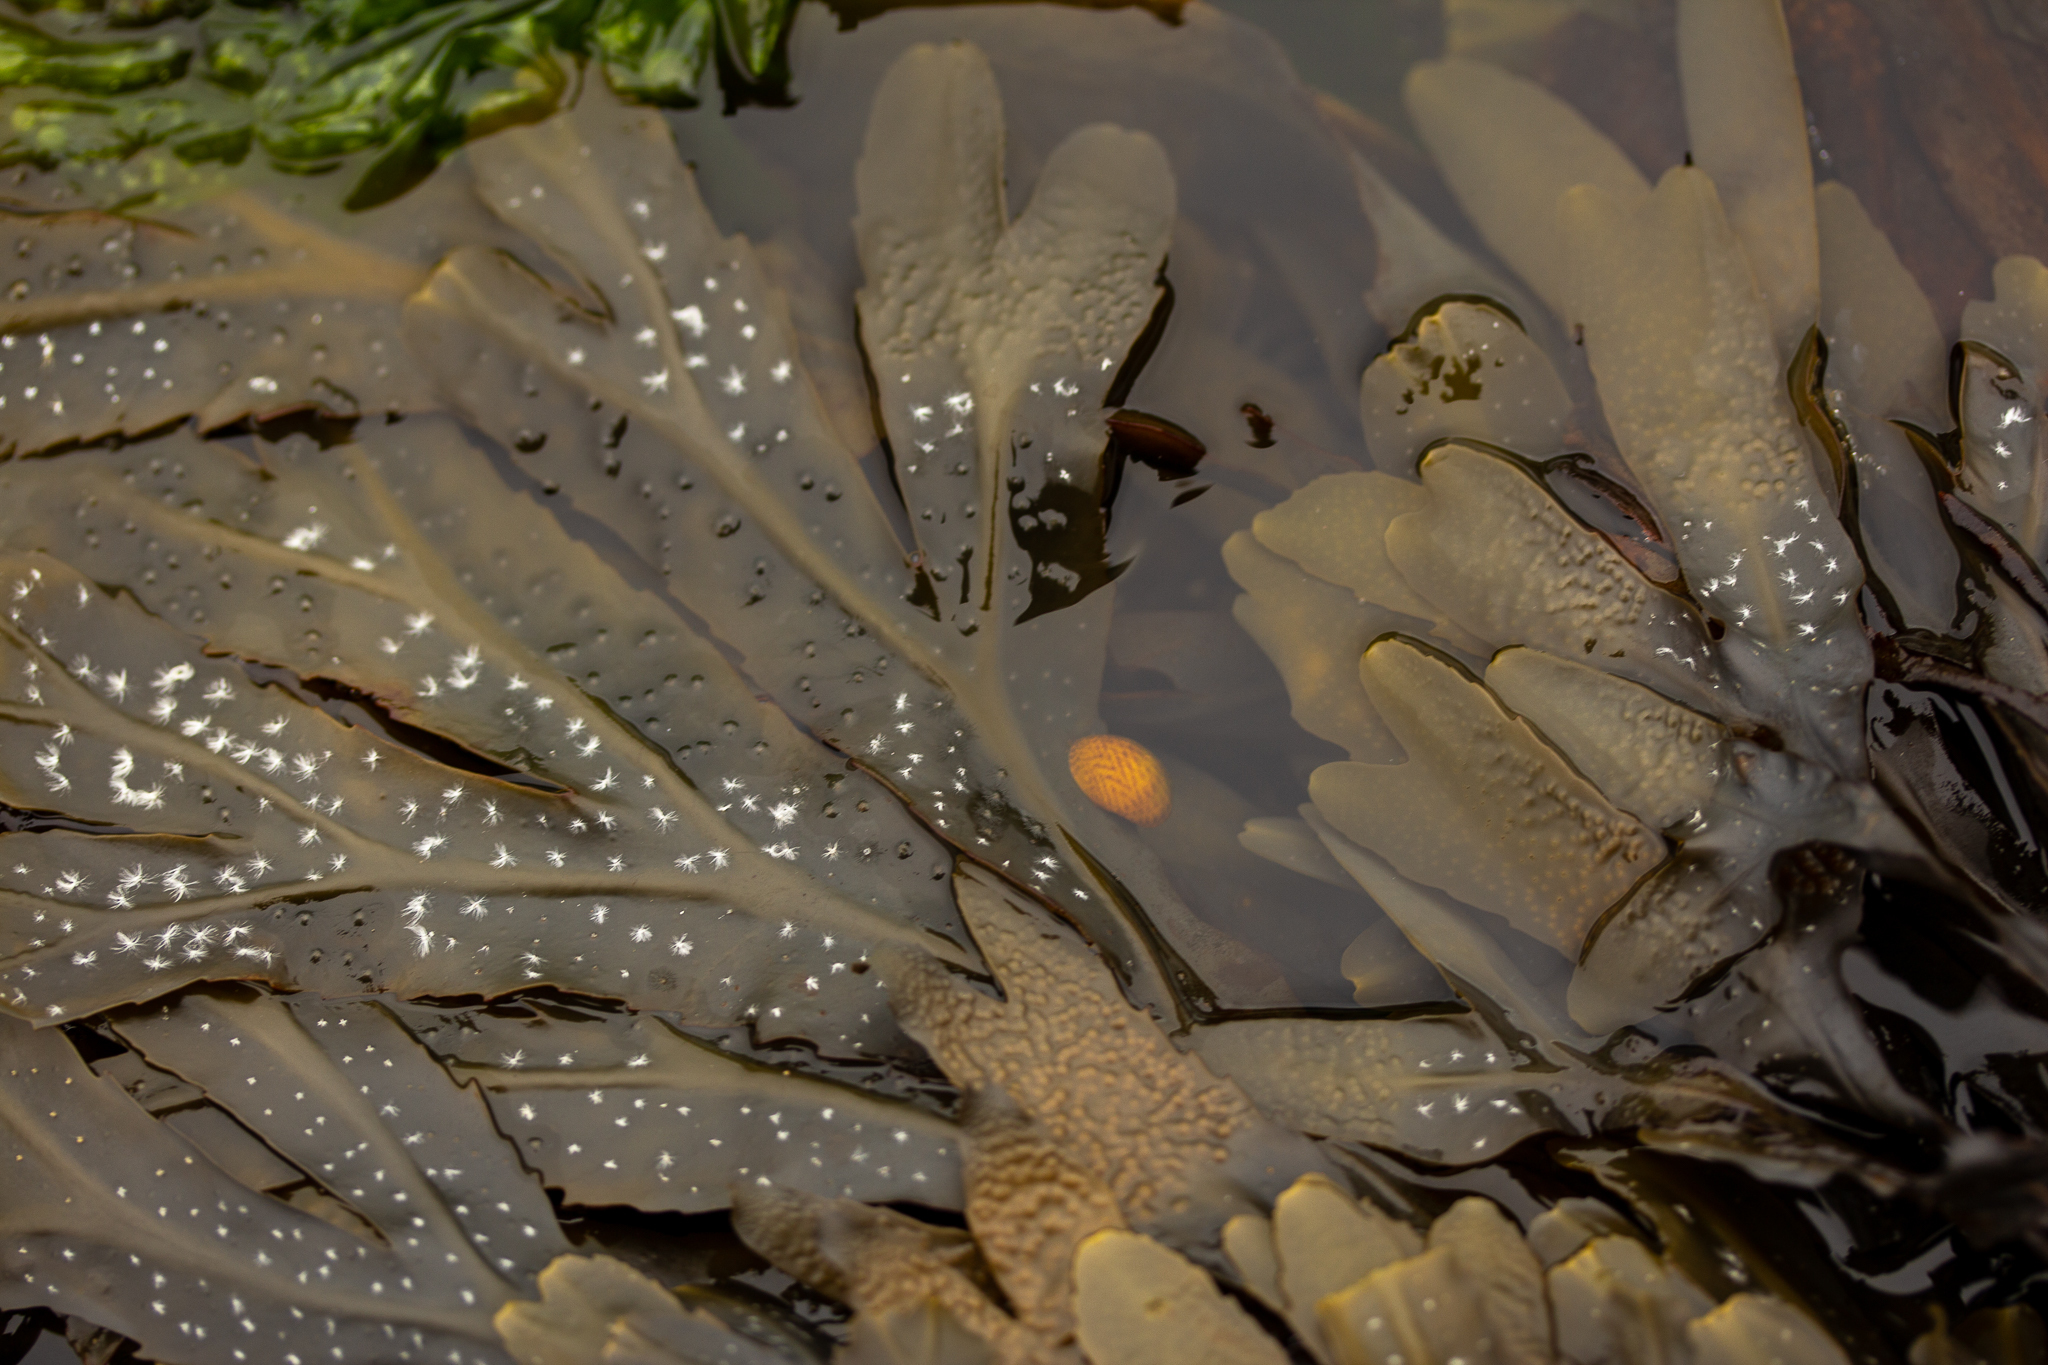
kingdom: Chromista
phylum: Ochrophyta
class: Phaeophyceae
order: Fucales
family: Fucaceae
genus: Fucus
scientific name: Fucus serratus
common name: Toothed wrack
